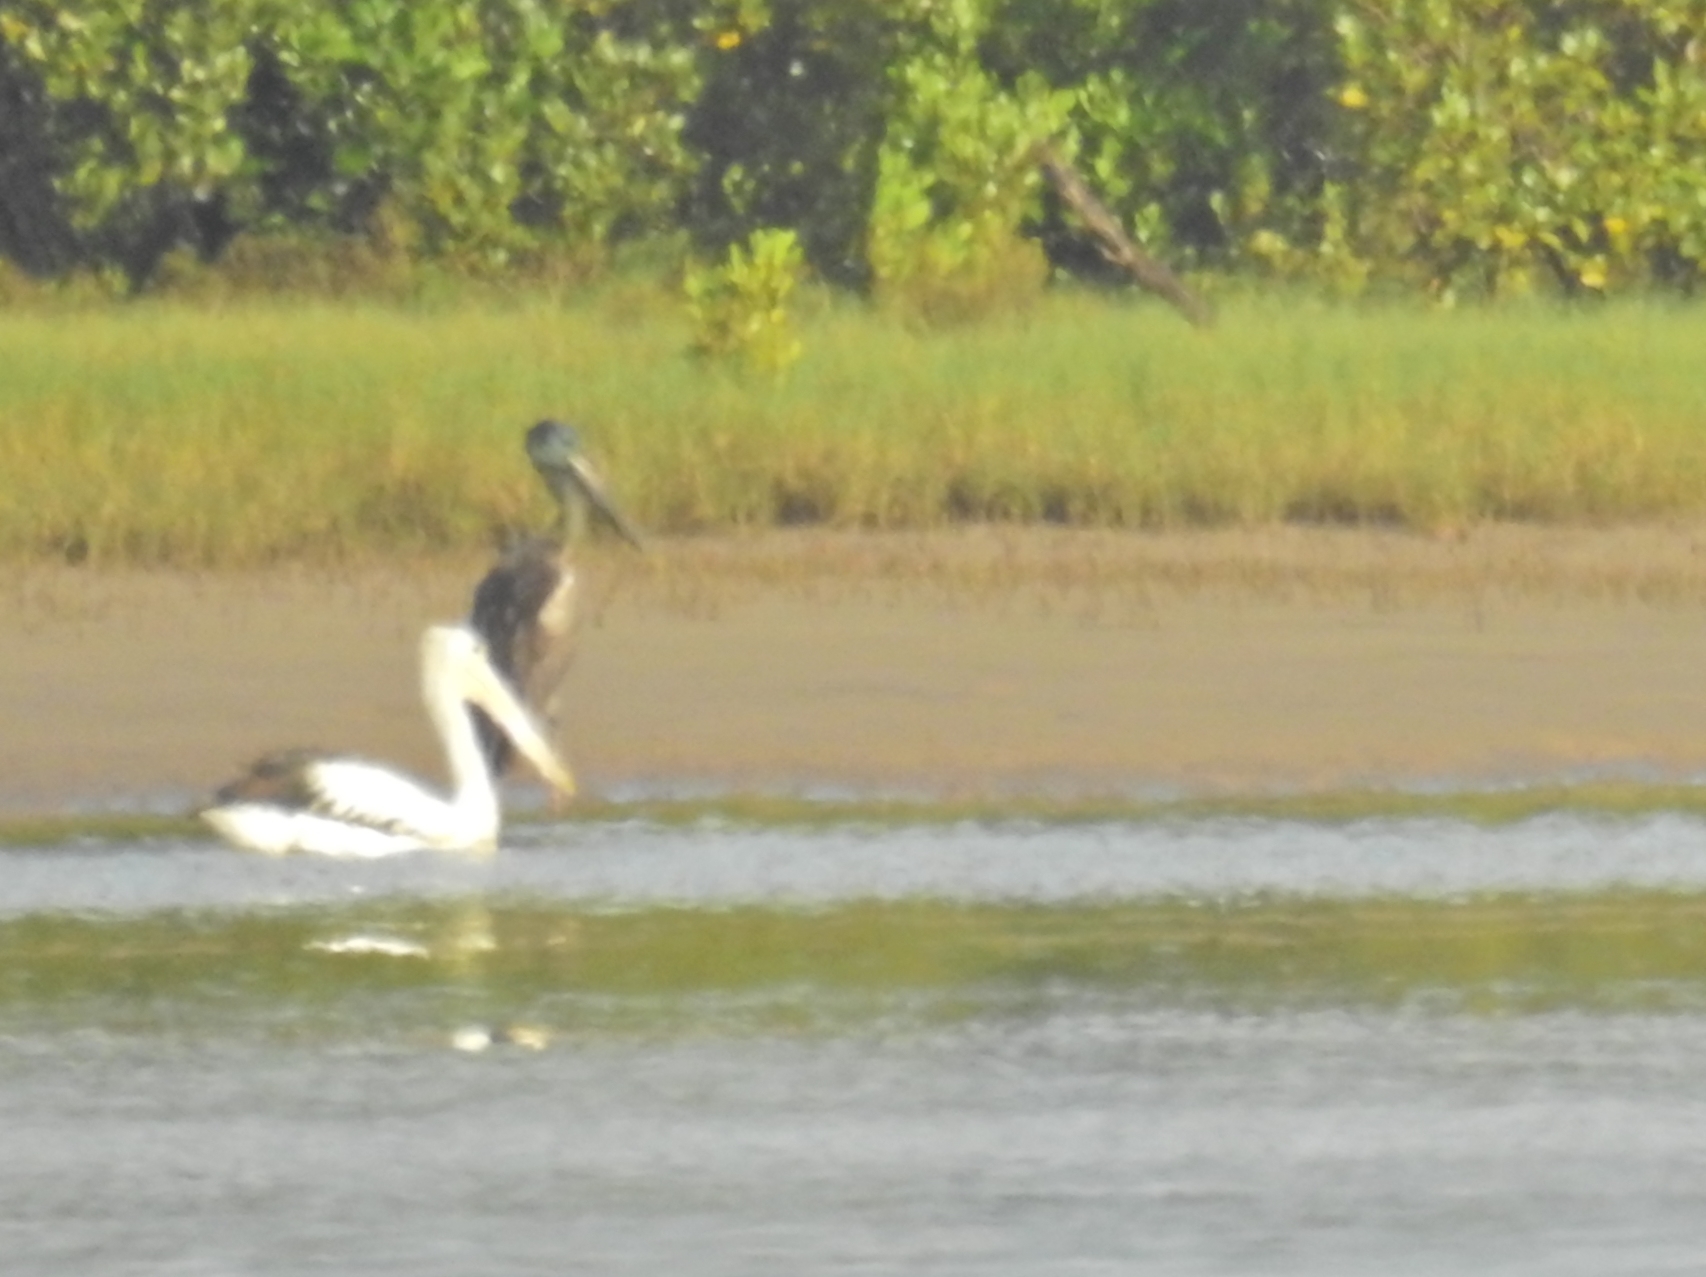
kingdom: Animalia
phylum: Chordata
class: Aves
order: Ciconiiformes
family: Ciconiidae
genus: Ephippiorhynchus
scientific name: Ephippiorhynchus asiaticus
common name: Black-necked stork
